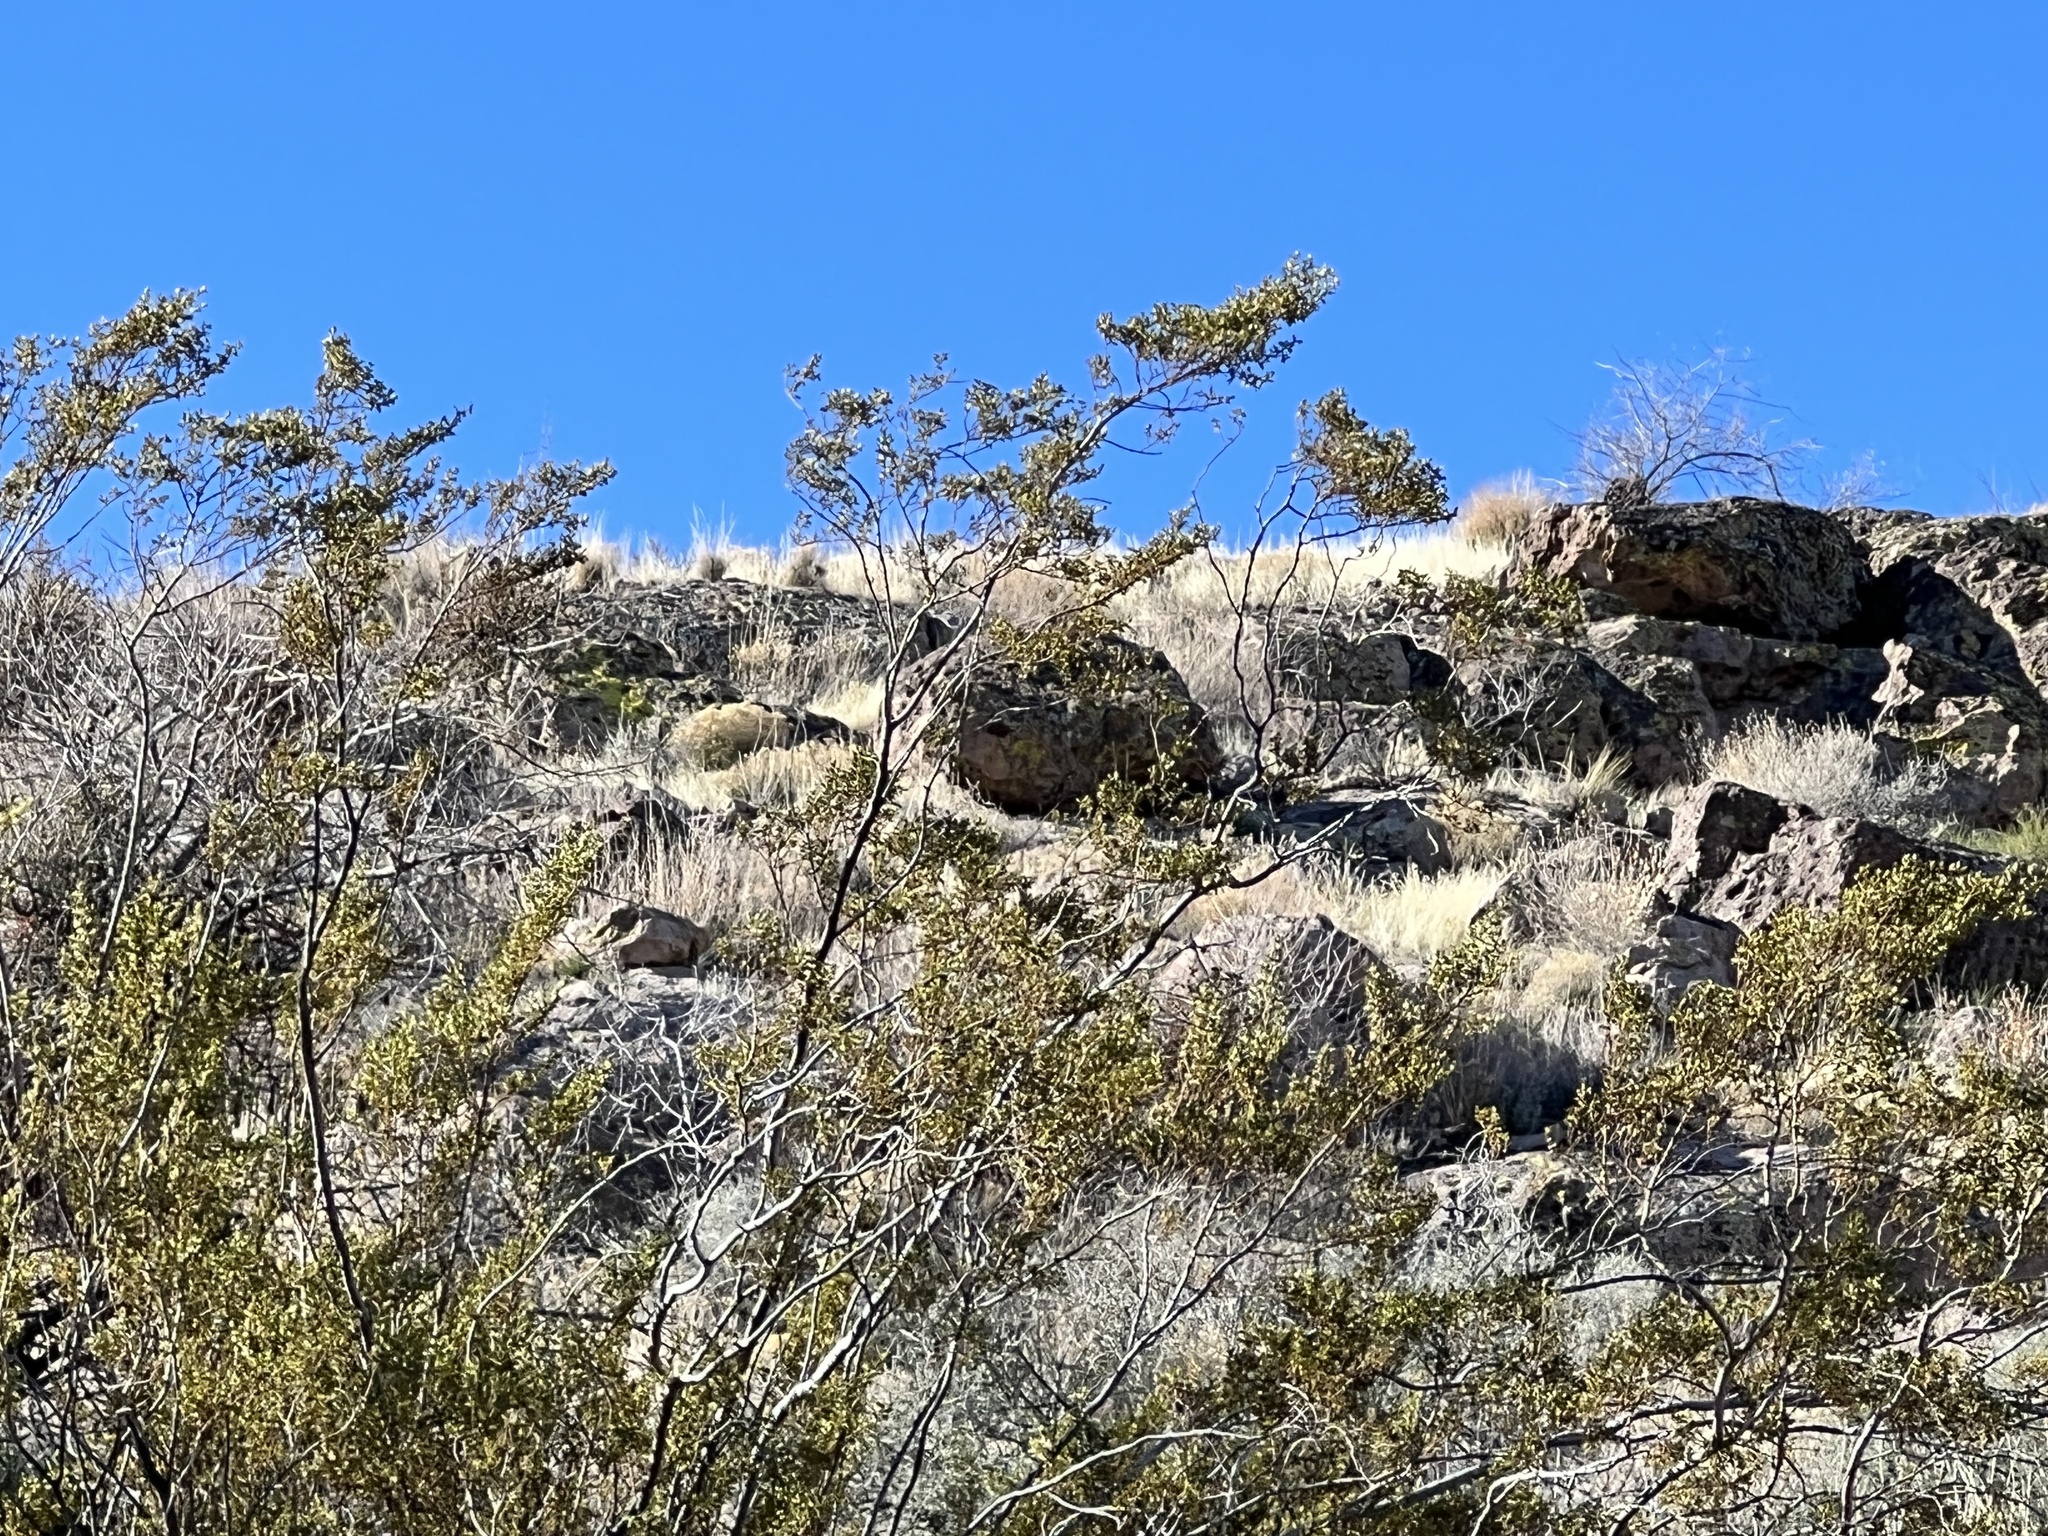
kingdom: Plantae
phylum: Tracheophyta
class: Magnoliopsida
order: Zygophyllales
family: Zygophyllaceae
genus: Larrea
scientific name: Larrea tridentata
